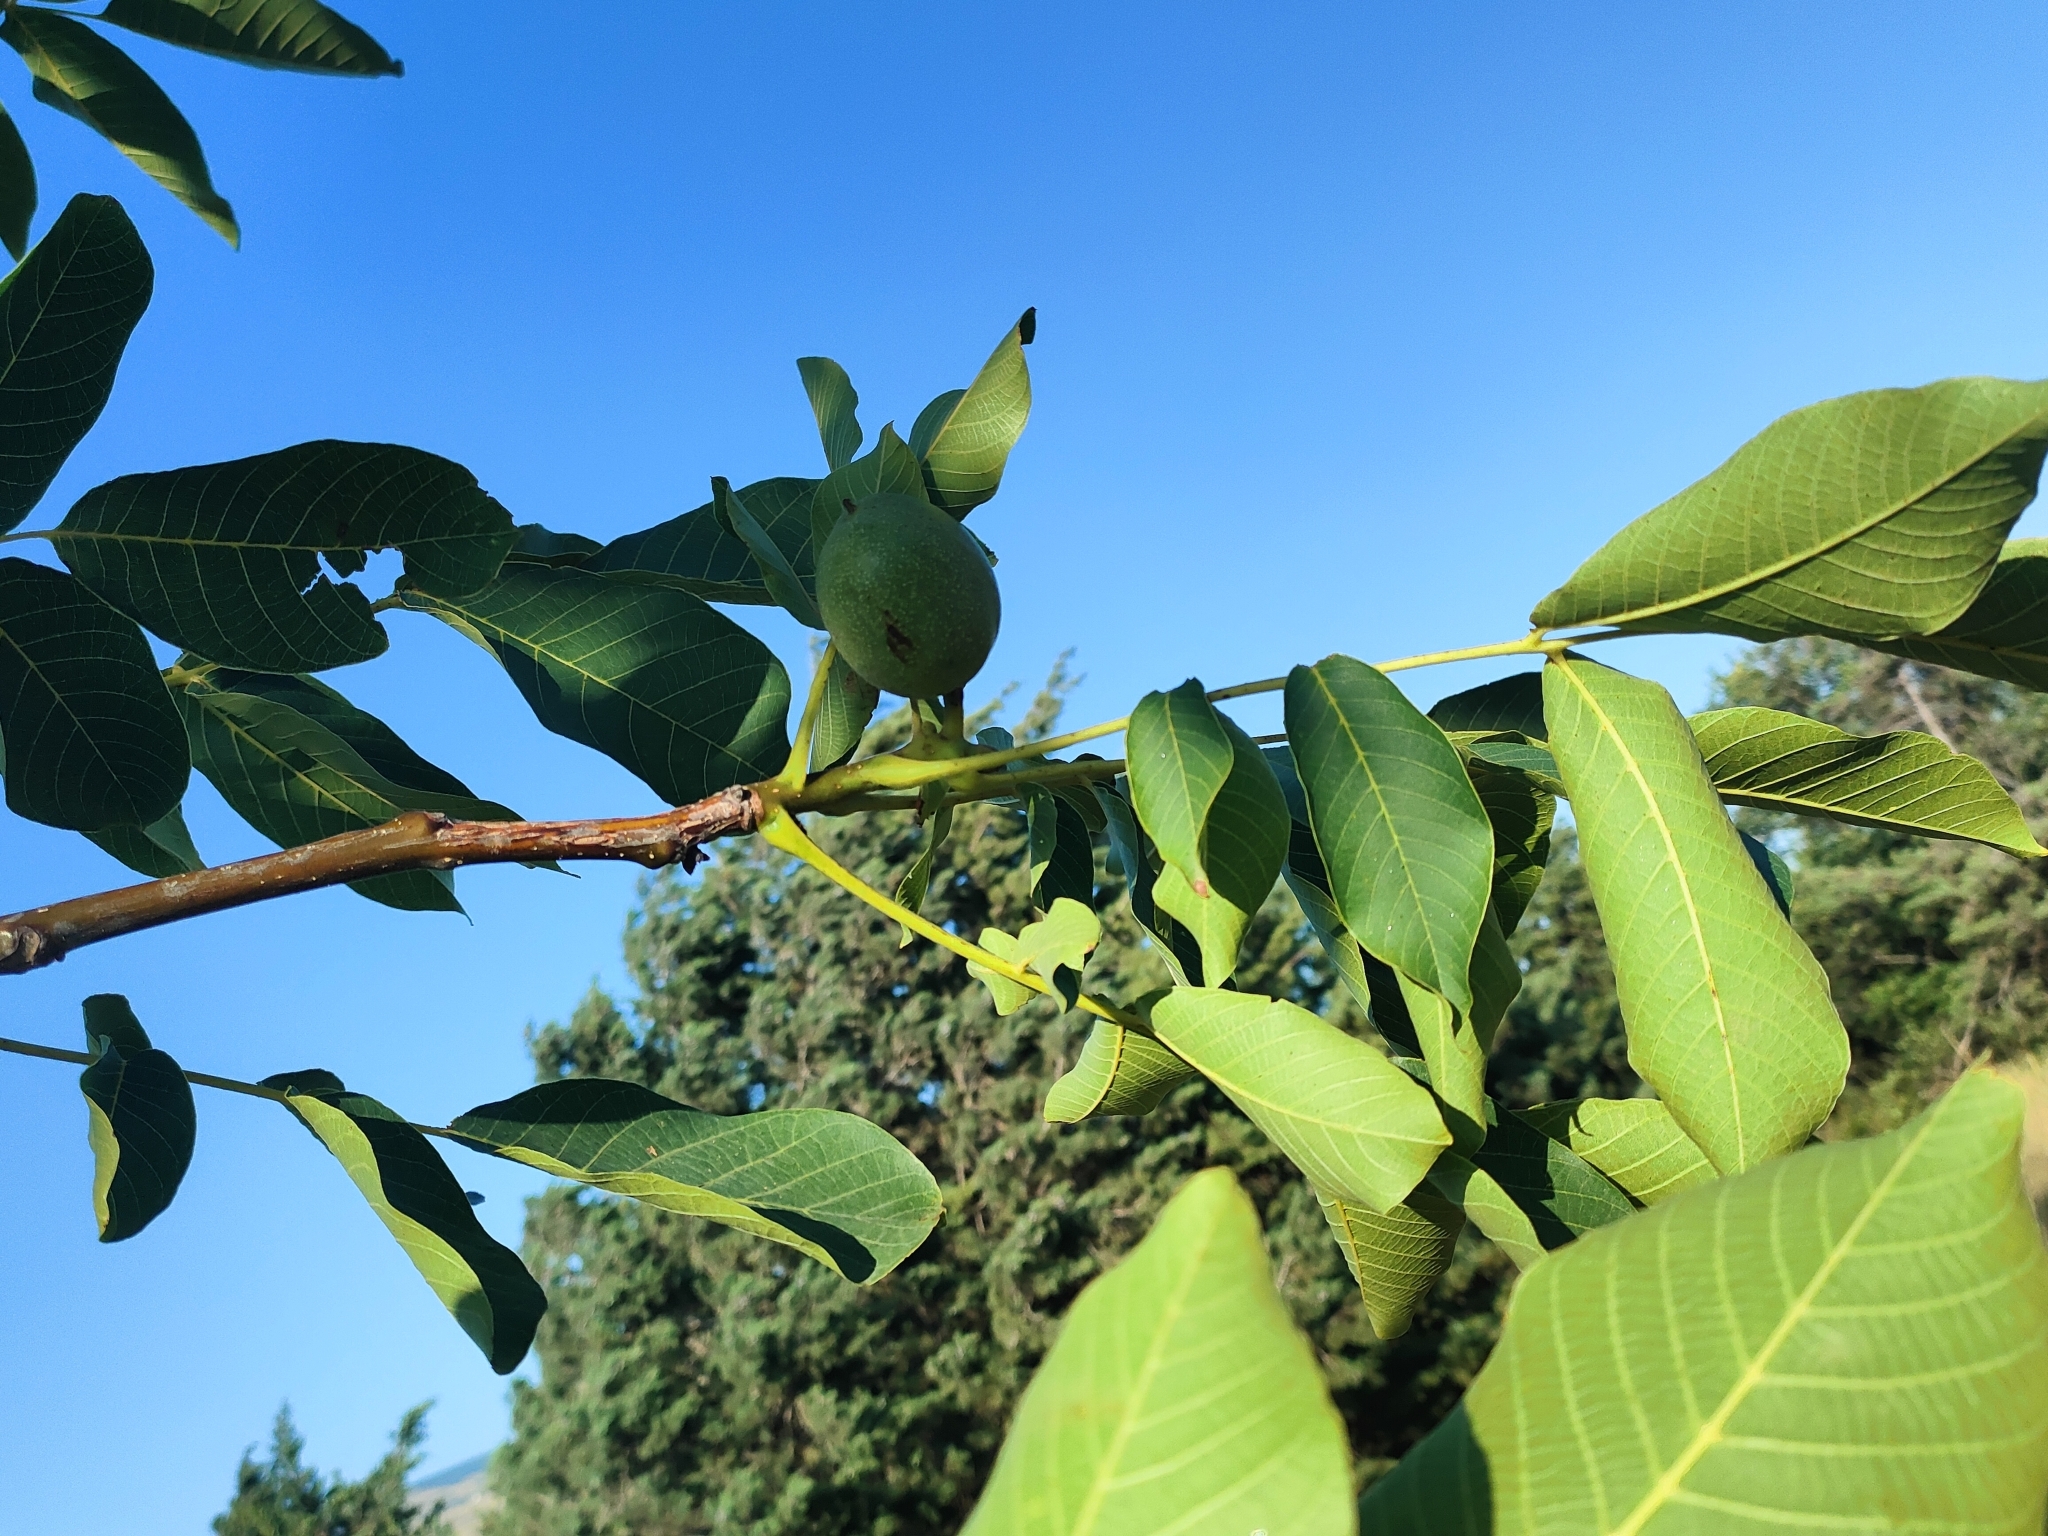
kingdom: Plantae
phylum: Tracheophyta
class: Magnoliopsida
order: Fagales
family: Juglandaceae
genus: Juglans
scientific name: Juglans regia
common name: Walnut
